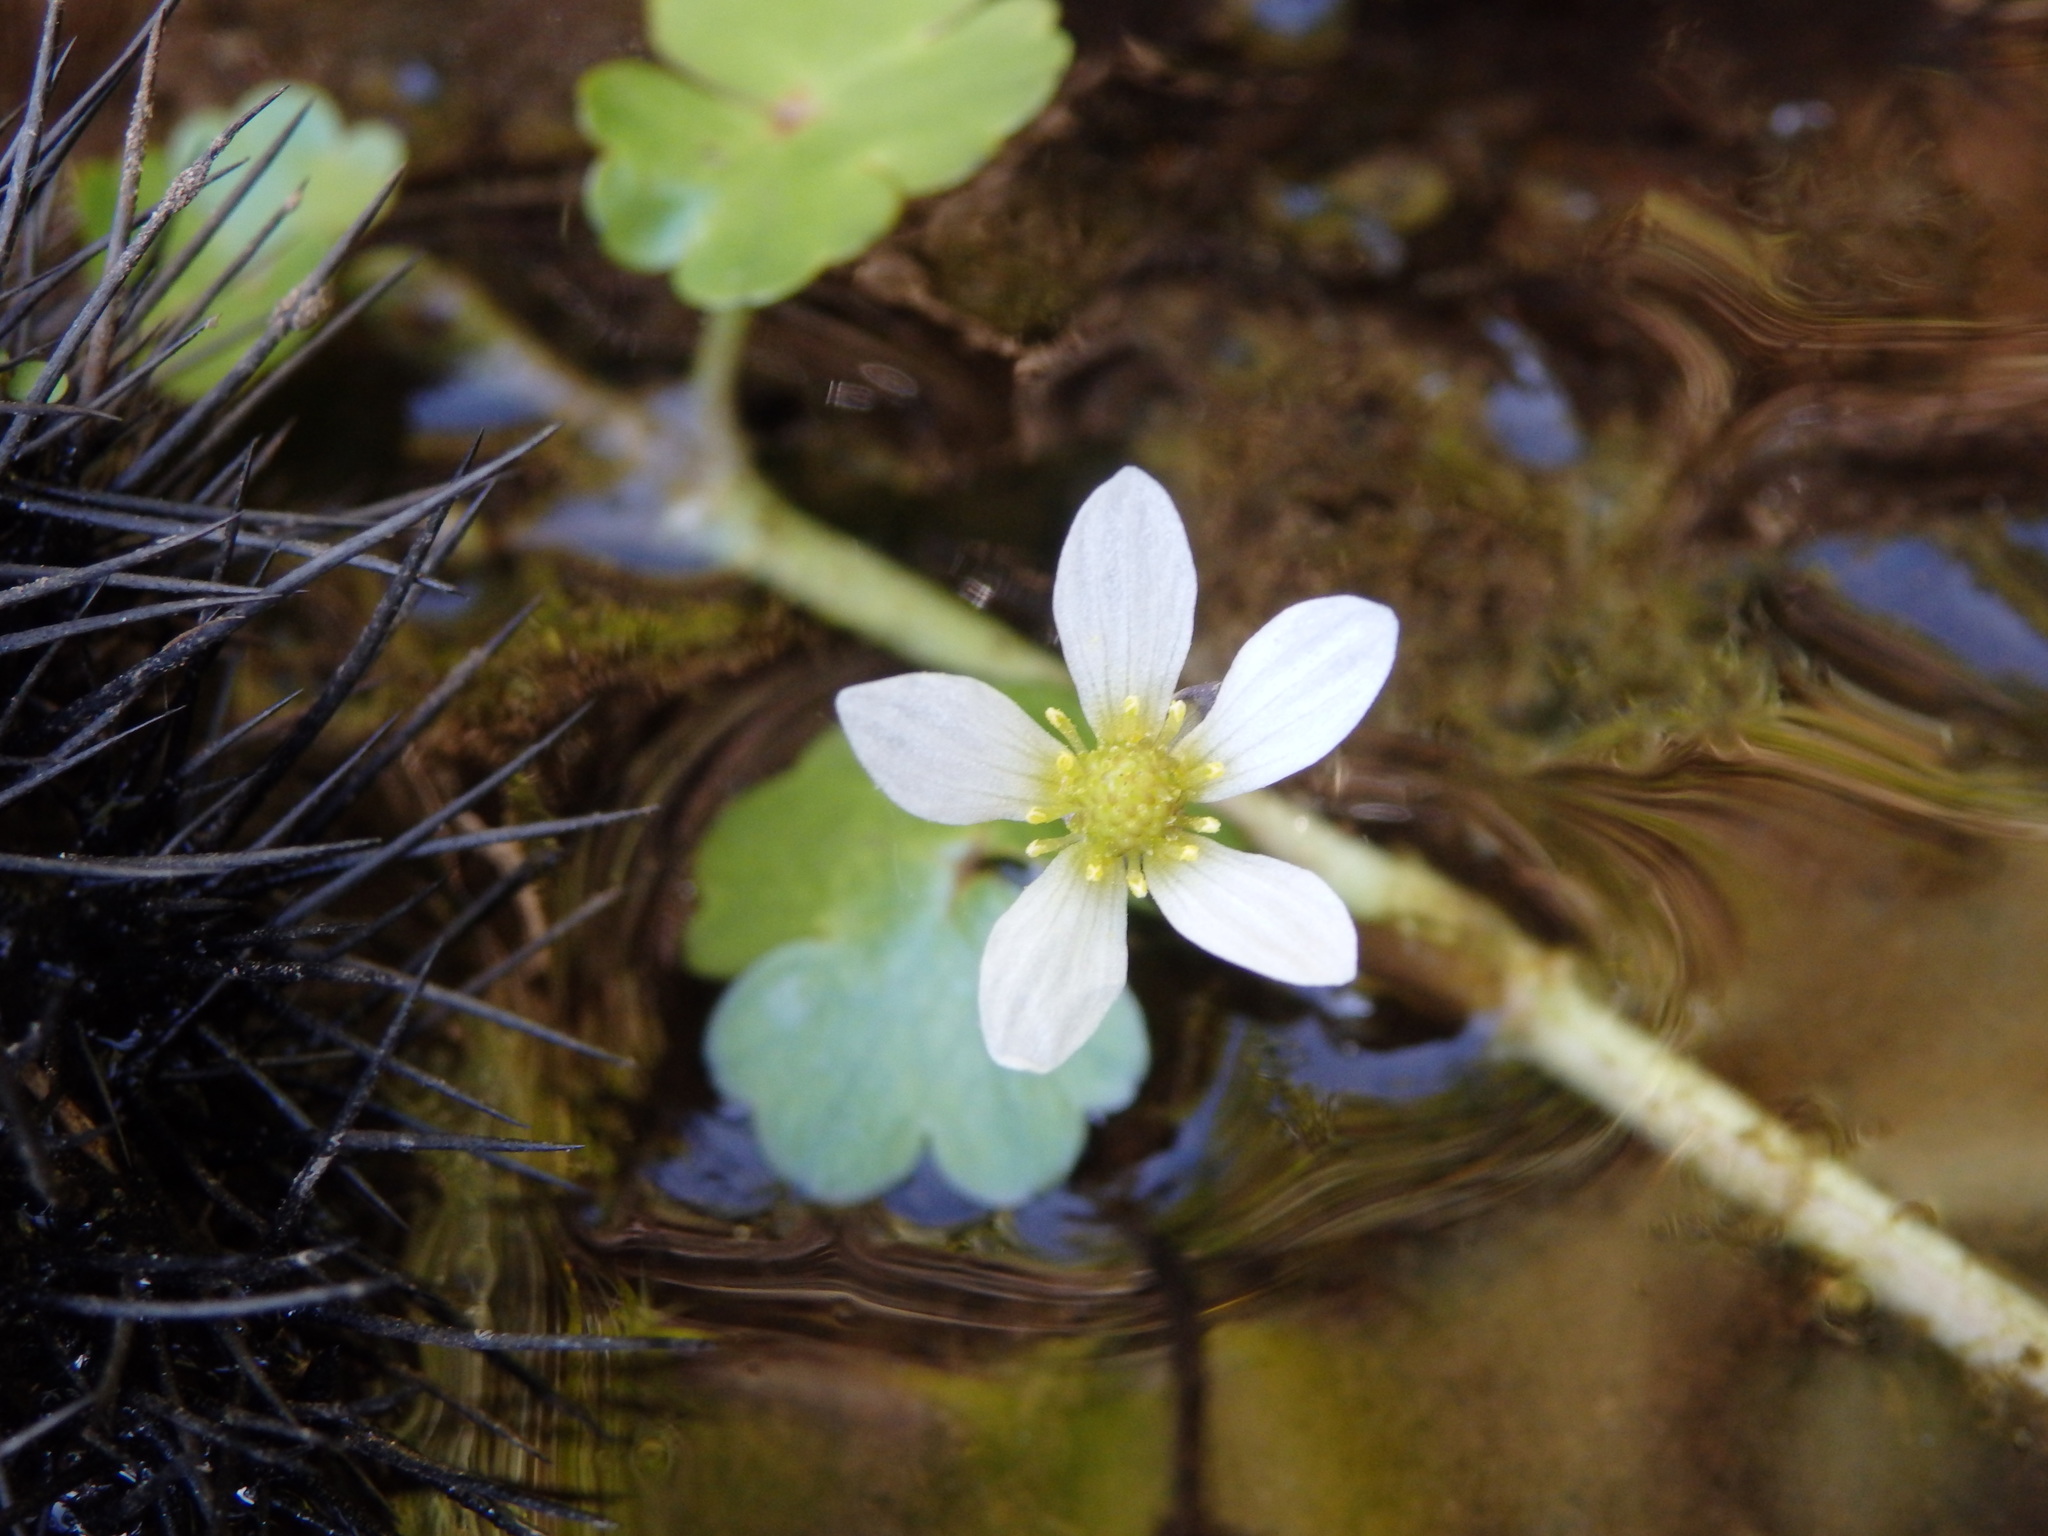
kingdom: Plantae
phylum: Tracheophyta
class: Magnoliopsida
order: Ranunculales
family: Ranunculaceae
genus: Ranunculus
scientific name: Ranunculus omiophyllus
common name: Round-leaved crowfoot
